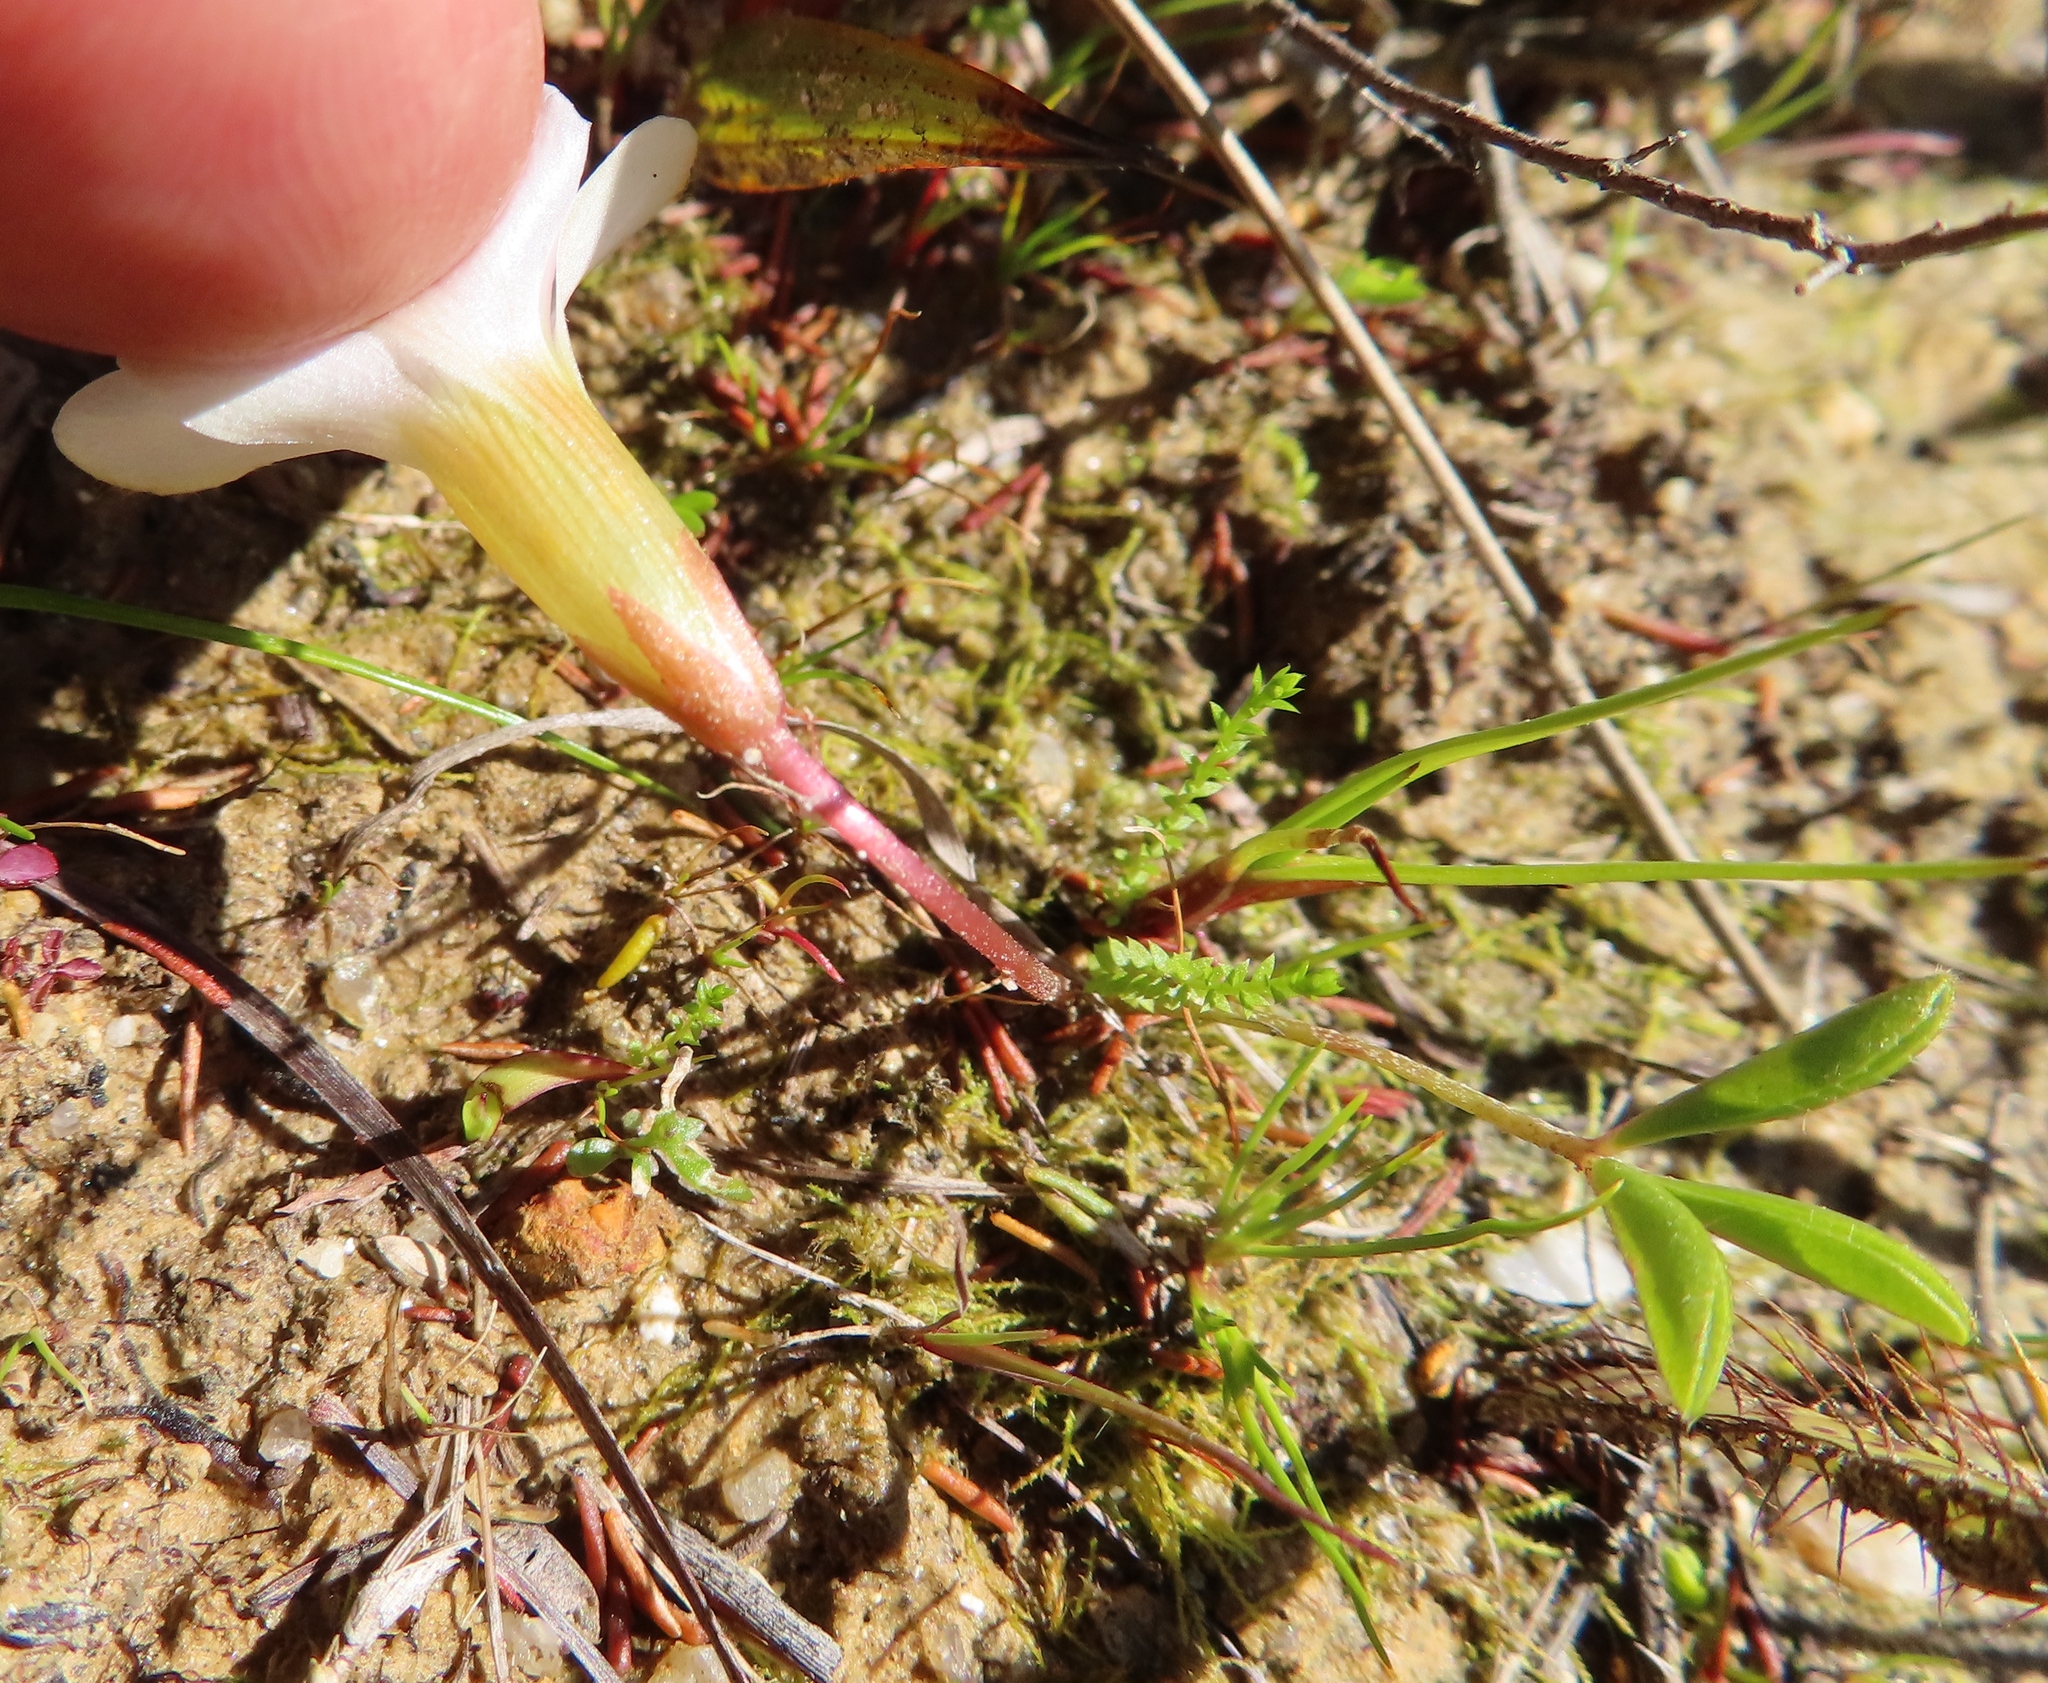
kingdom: Plantae
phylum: Tracheophyta
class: Magnoliopsida
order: Oxalidales
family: Oxalidaceae
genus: Oxalis
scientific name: Oxalis minuta
